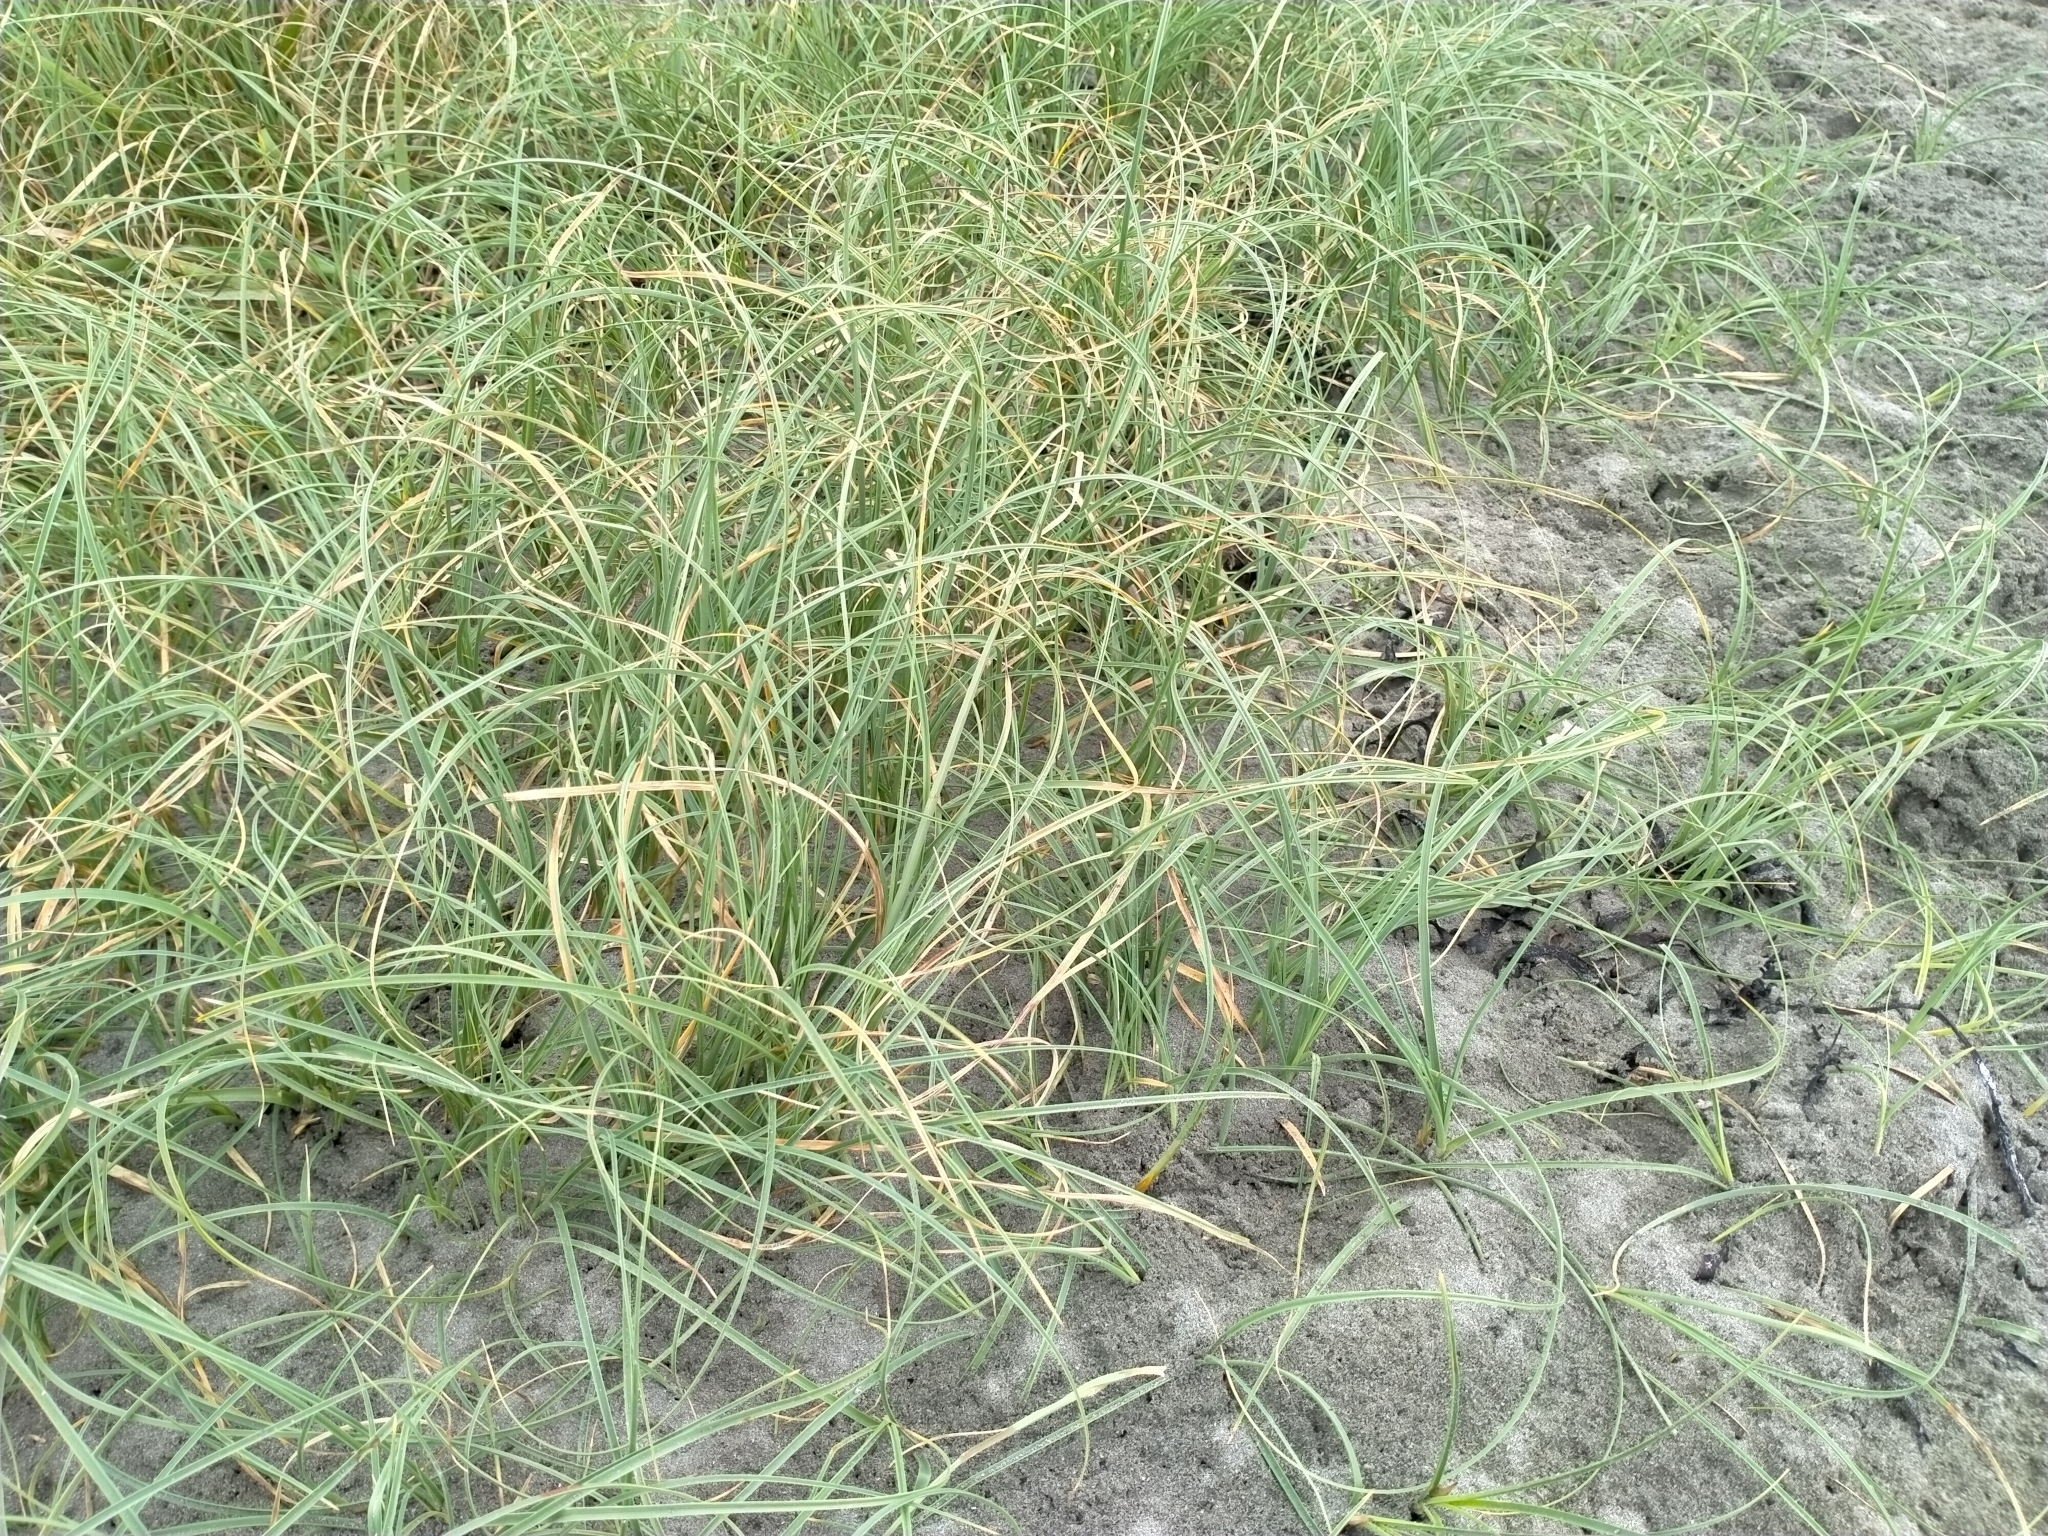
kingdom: Plantae
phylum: Tracheophyta
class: Liliopsida
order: Poales
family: Cyperaceae
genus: Carex
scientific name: Carex pumila
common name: Dwarf sedge
